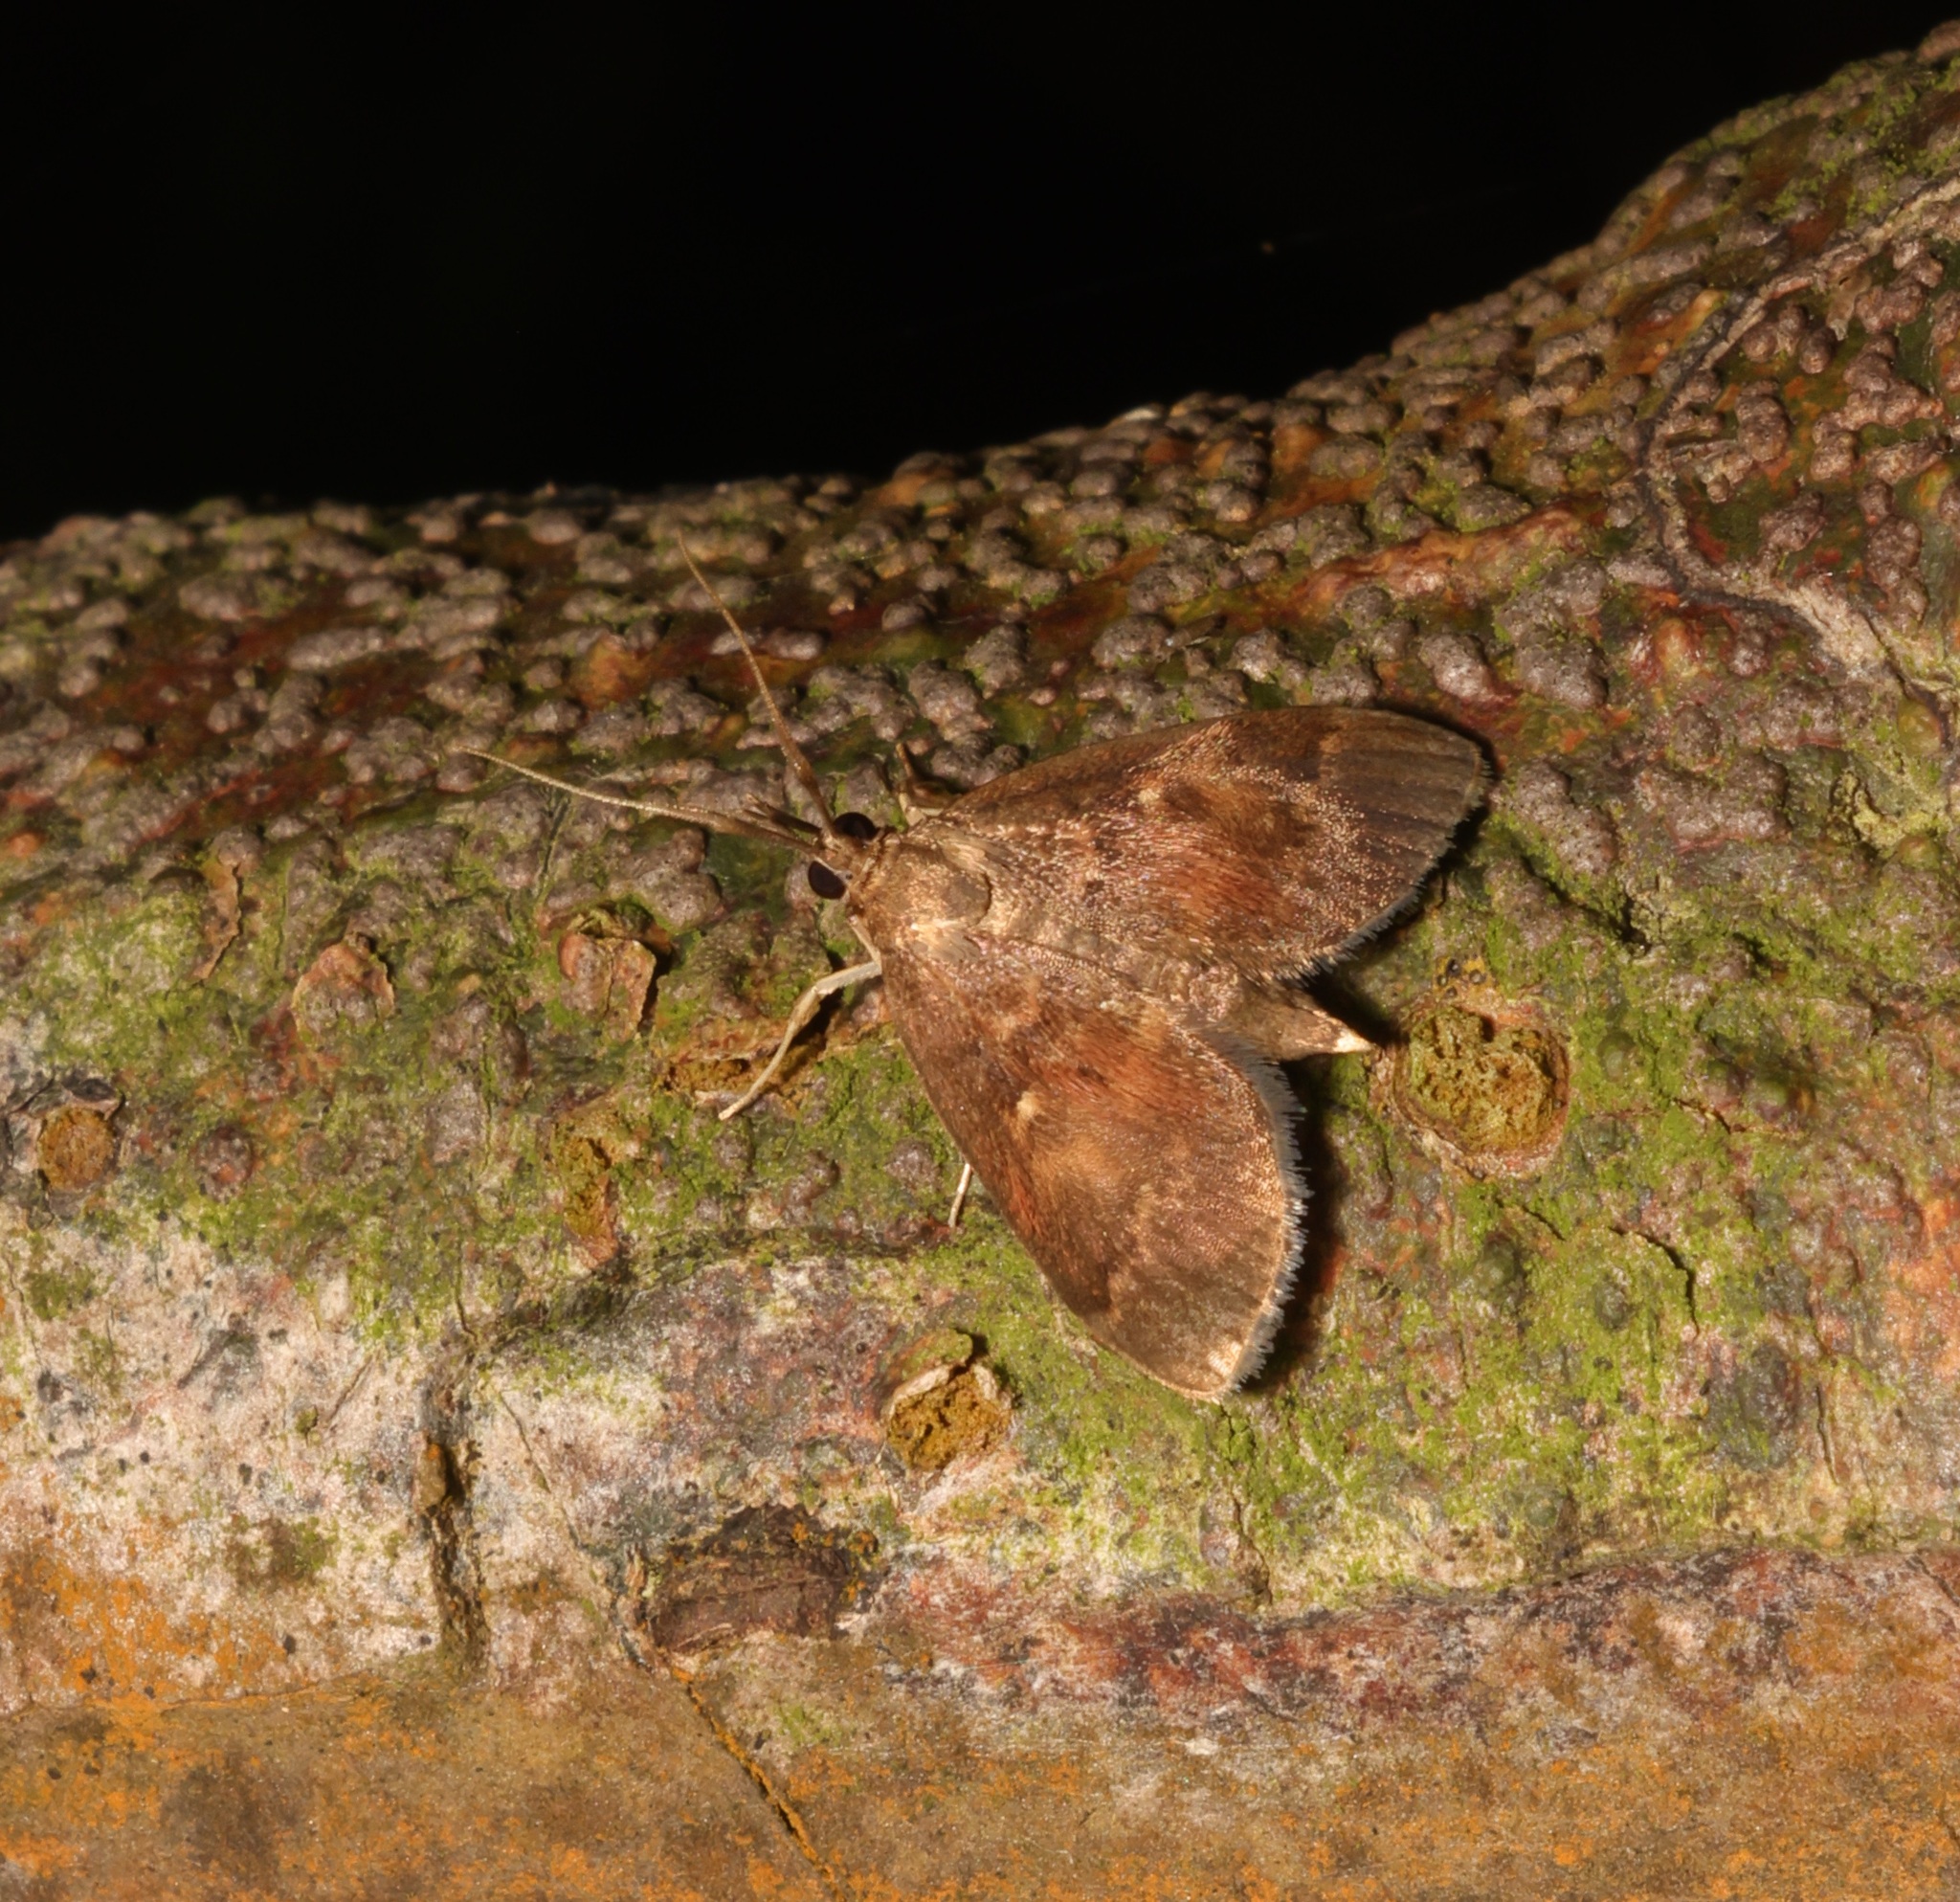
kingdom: Animalia
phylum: Arthropoda
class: Insecta
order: Lepidoptera
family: Crambidae
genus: Camptomastix
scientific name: Camptomastix hisbonalis
